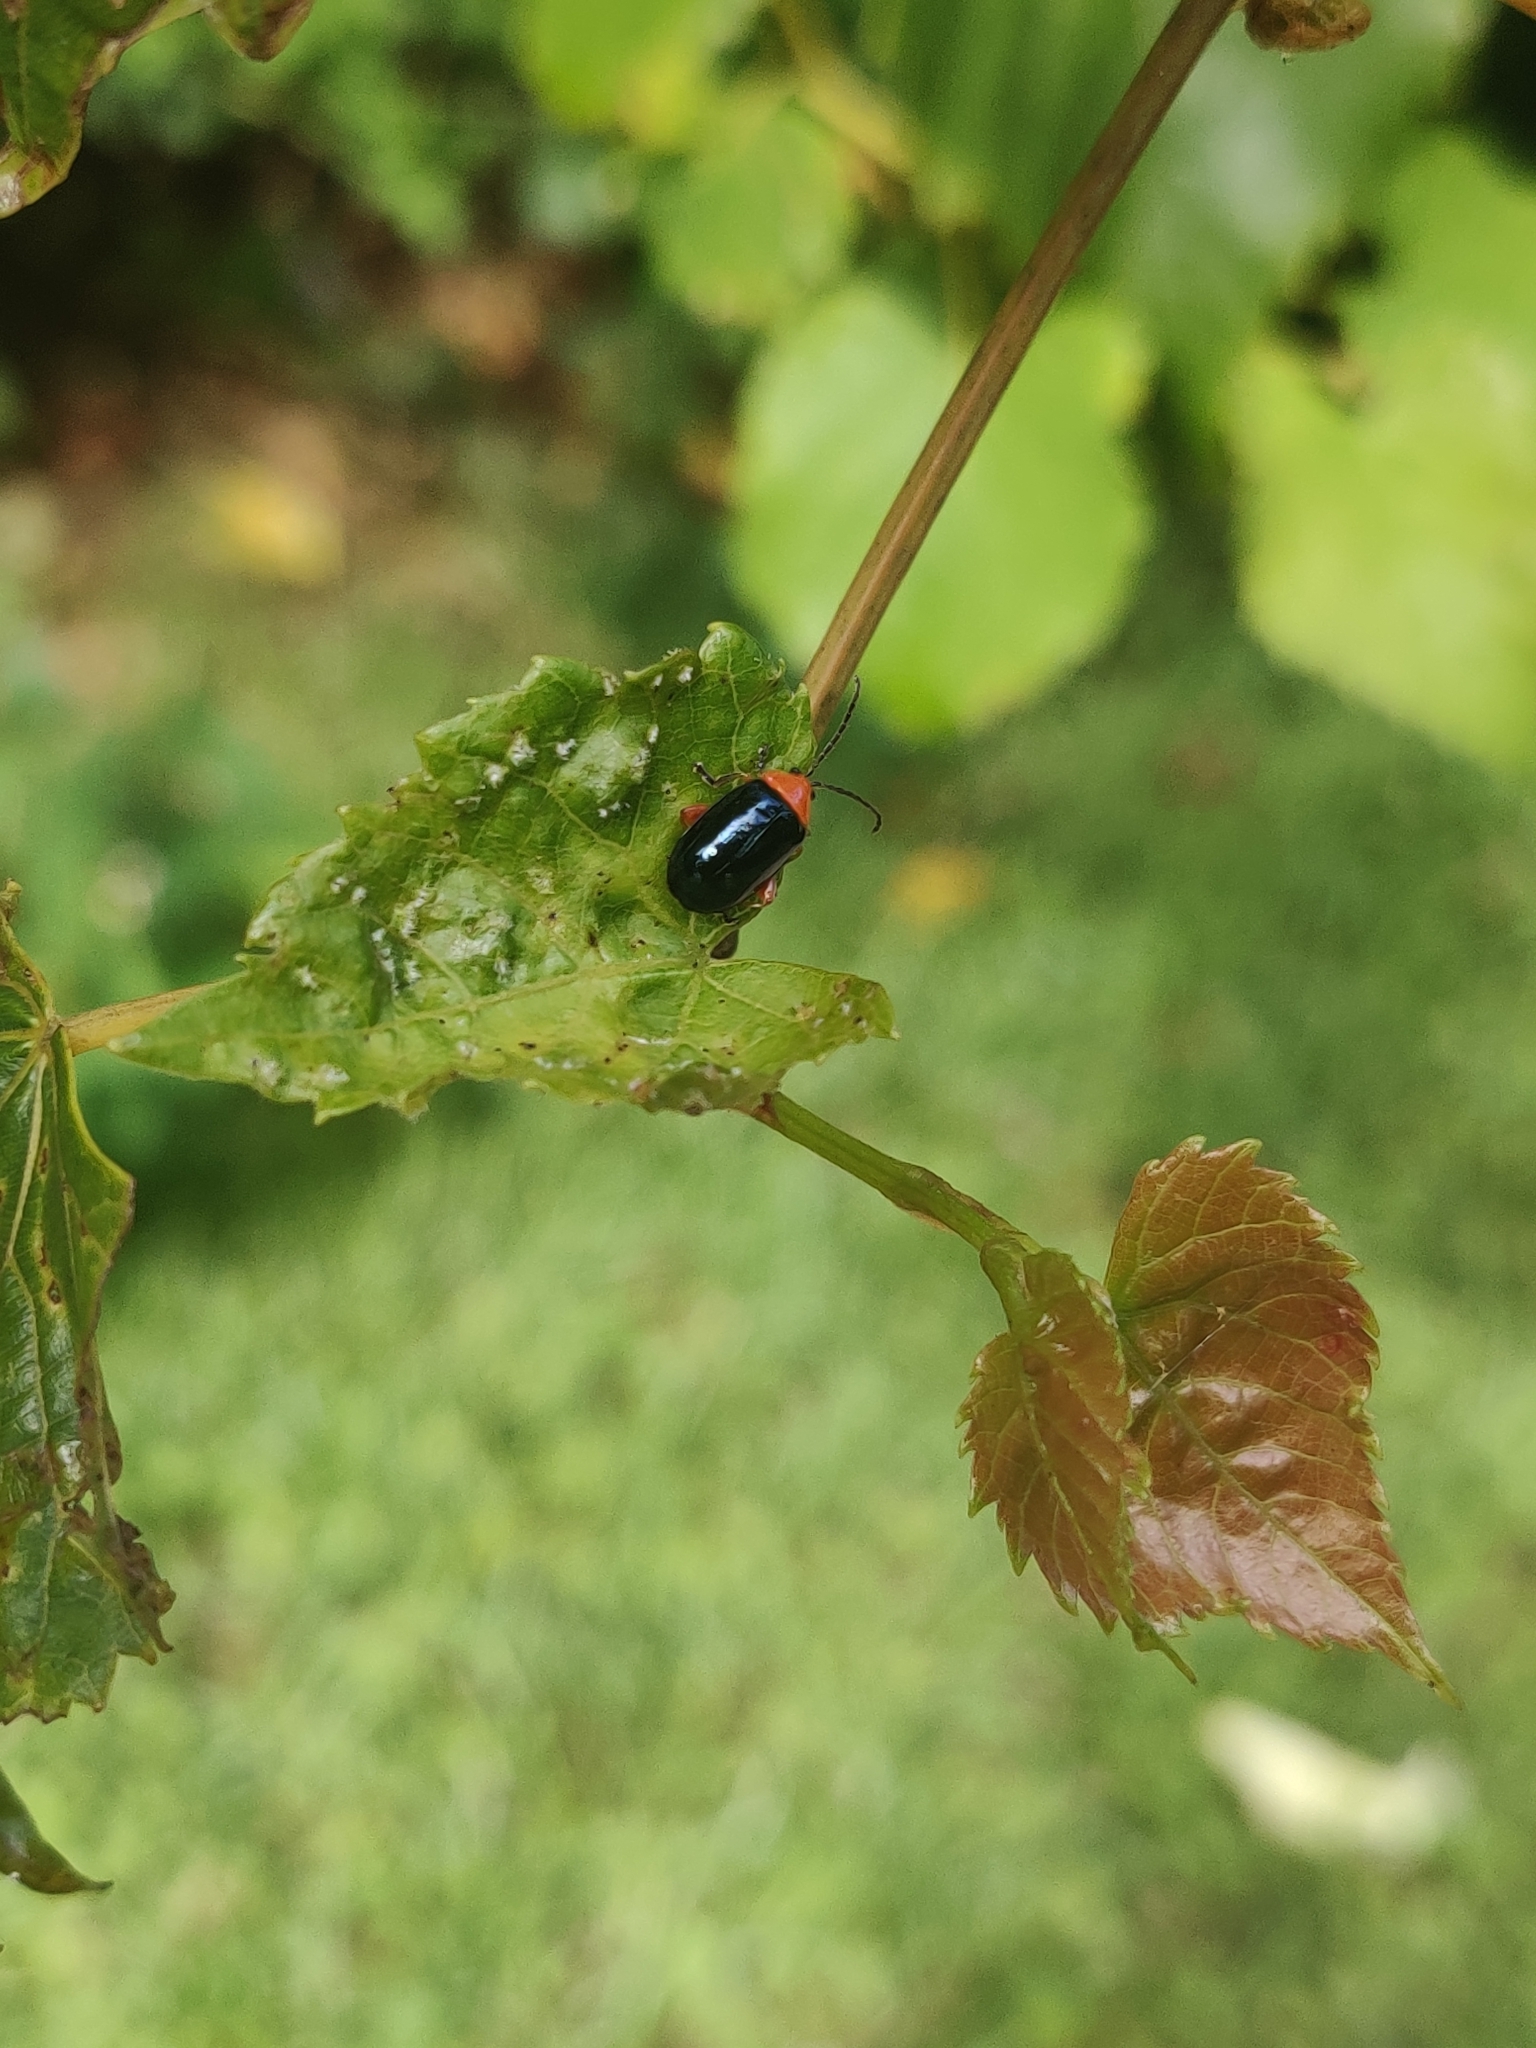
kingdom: Animalia
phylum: Arthropoda
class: Insecta
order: Coleoptera
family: Chrysomelidae
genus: Asphaera
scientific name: Asphaera lustrans
